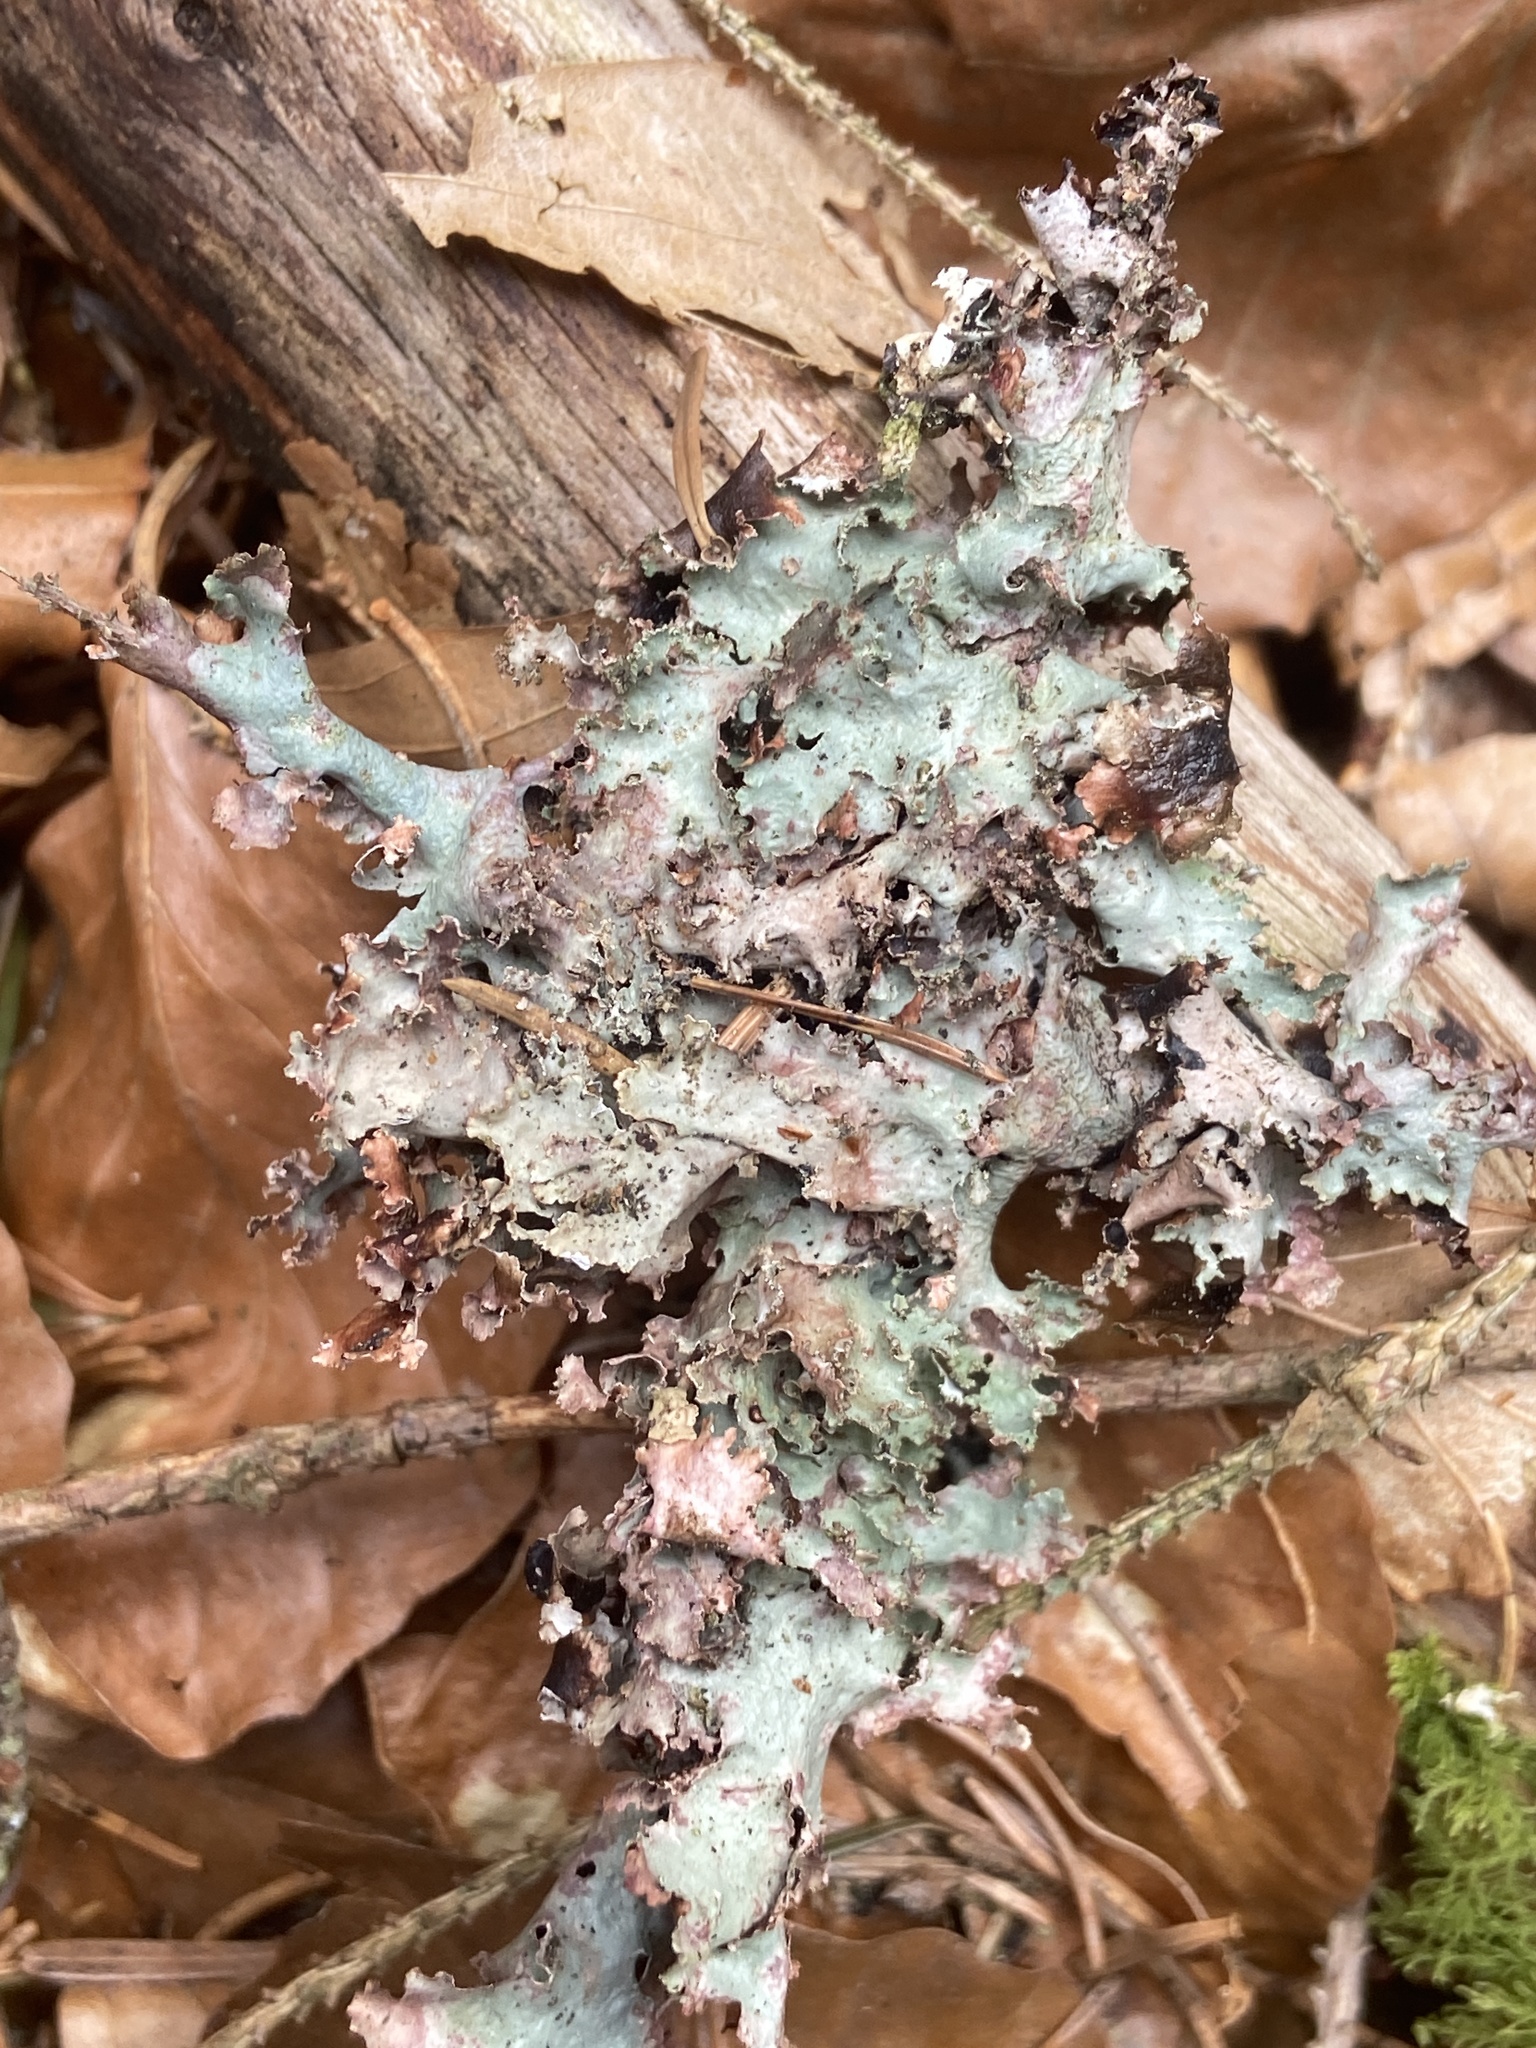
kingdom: Fungi
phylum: Ascomycota
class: Lecanoromycetes
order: Lecanorales
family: Parmeliaceae
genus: Platismatia
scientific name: Platismatia glauca
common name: Varied rag lichen
